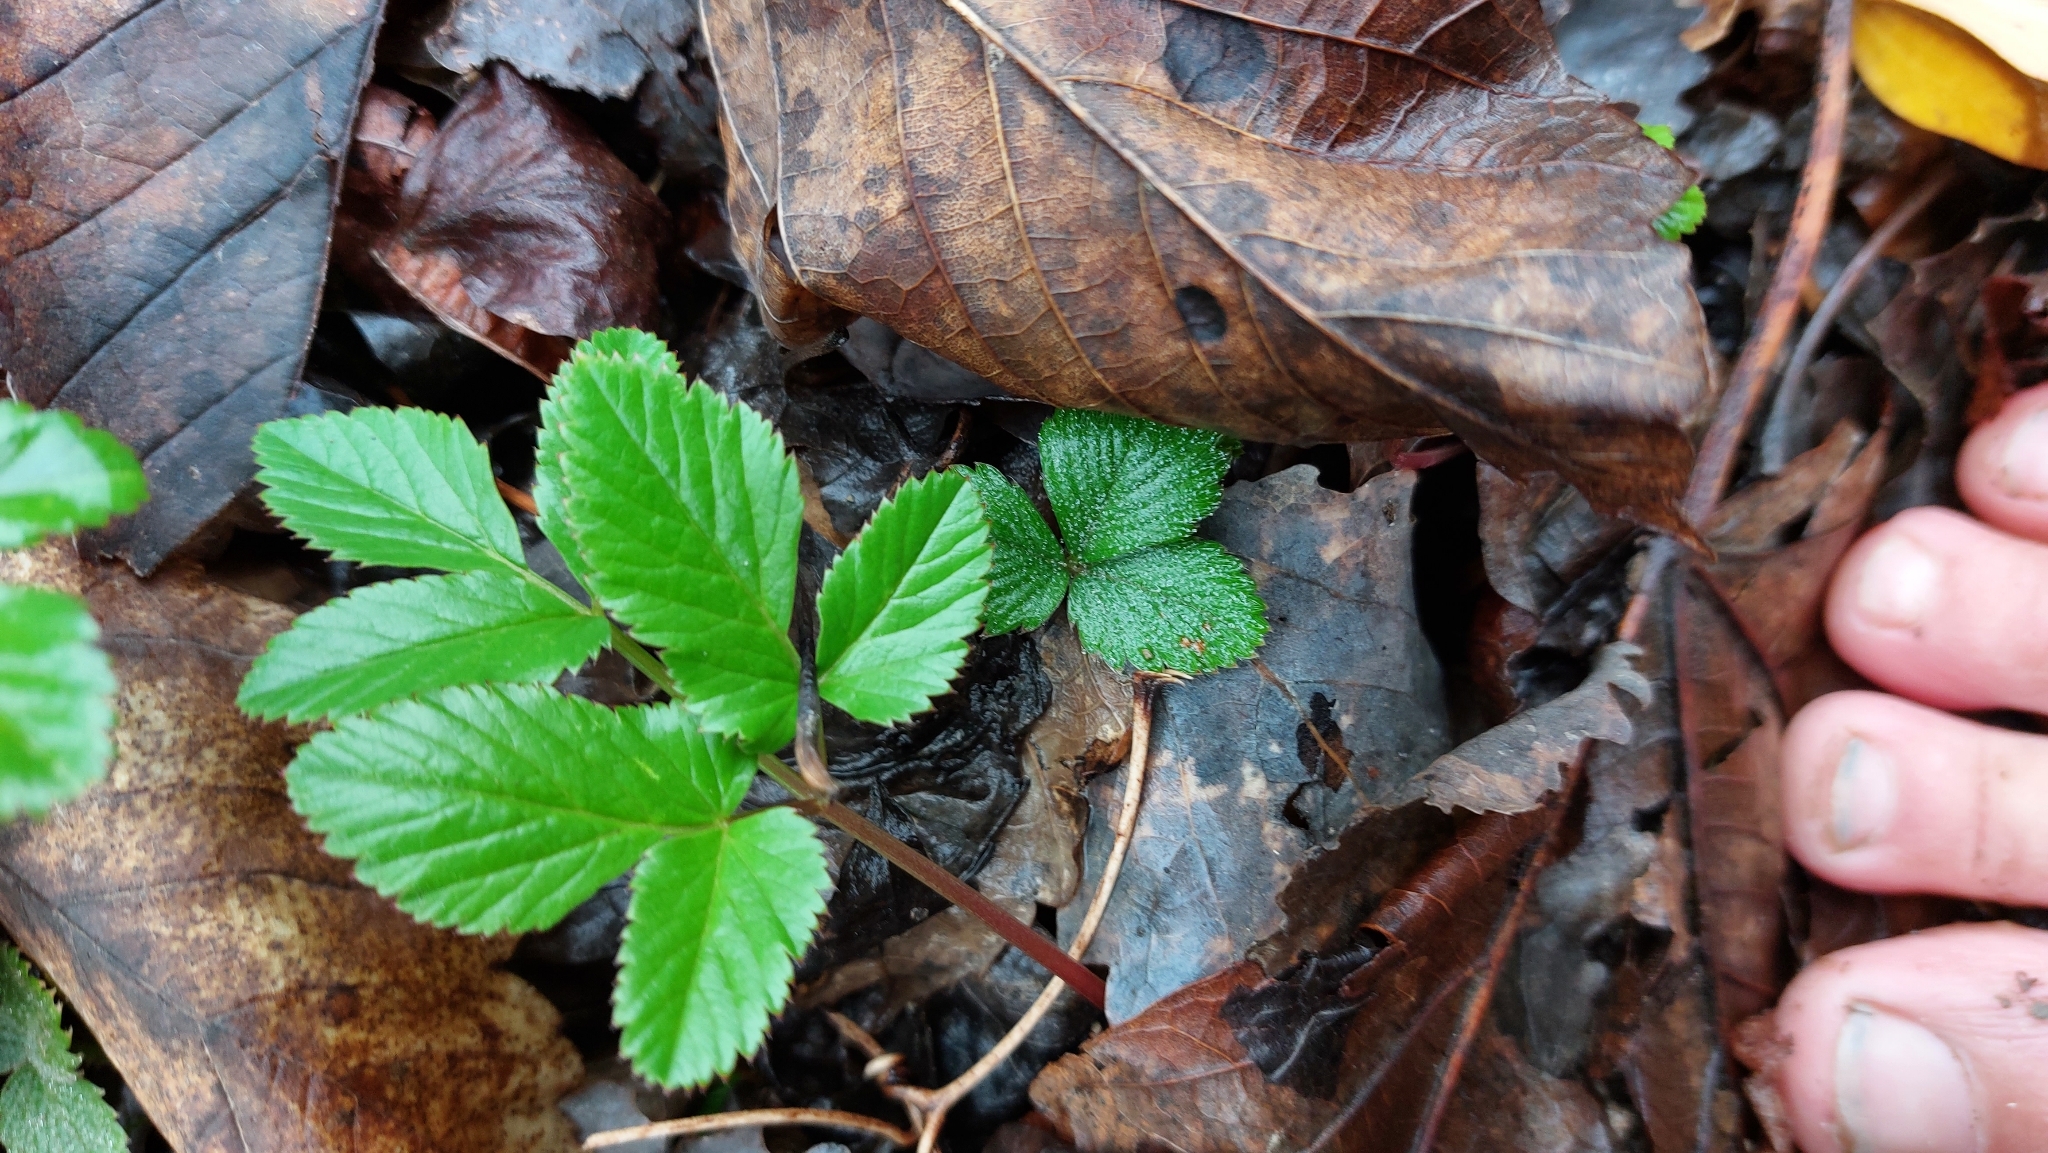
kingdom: Plantae
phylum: Tracheophyta
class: Magnoliopsida
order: Apiales
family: Apiaceae
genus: Aegopodium
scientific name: Aegopodium podagraria
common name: Ground-elder
